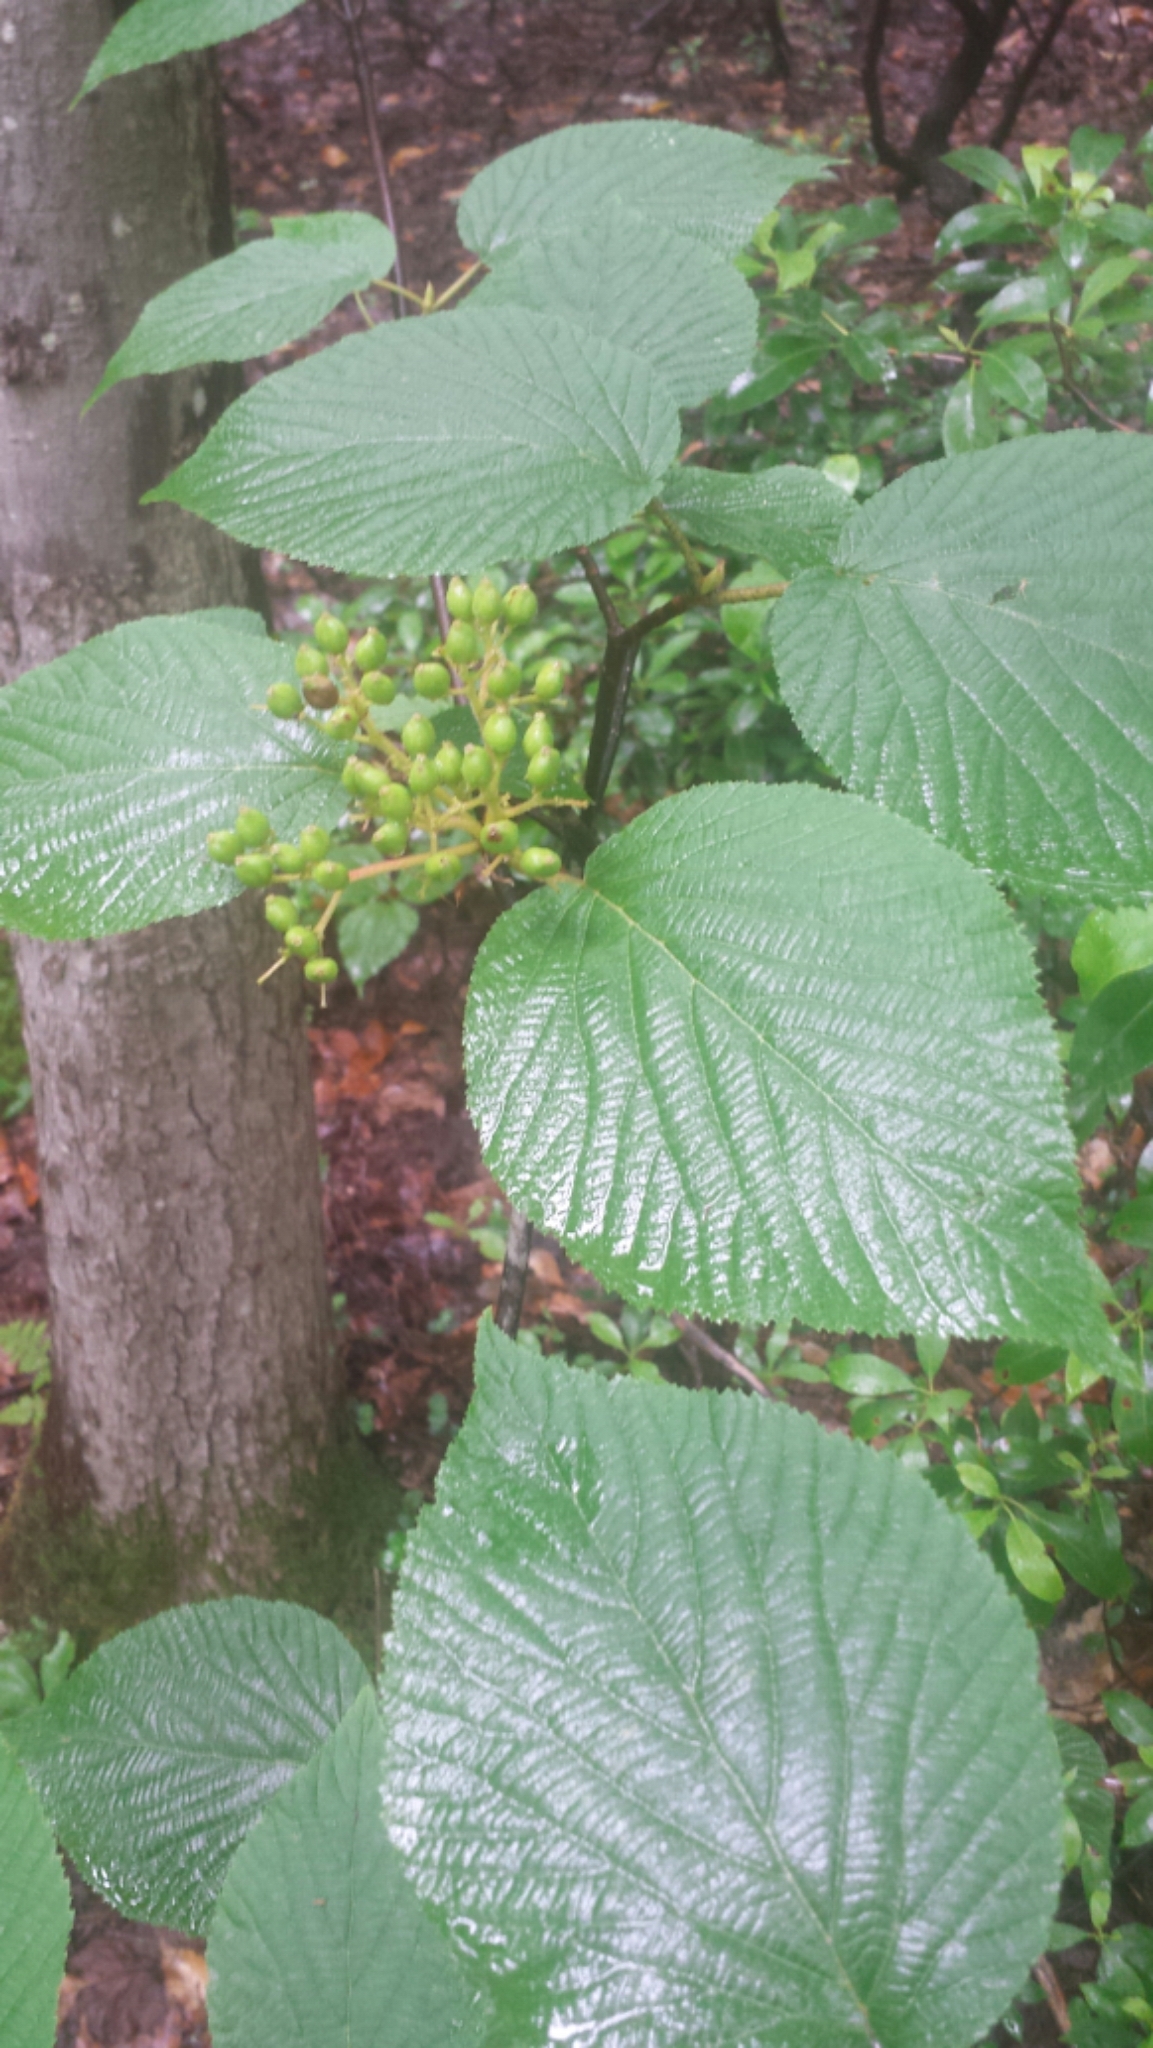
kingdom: Plantae
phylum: Tracheophyta
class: Magnoliopsida
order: Dipsacales
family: Viburnaceae
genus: Viburnum
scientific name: Viburnum lantanoides
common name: Hobblebush
